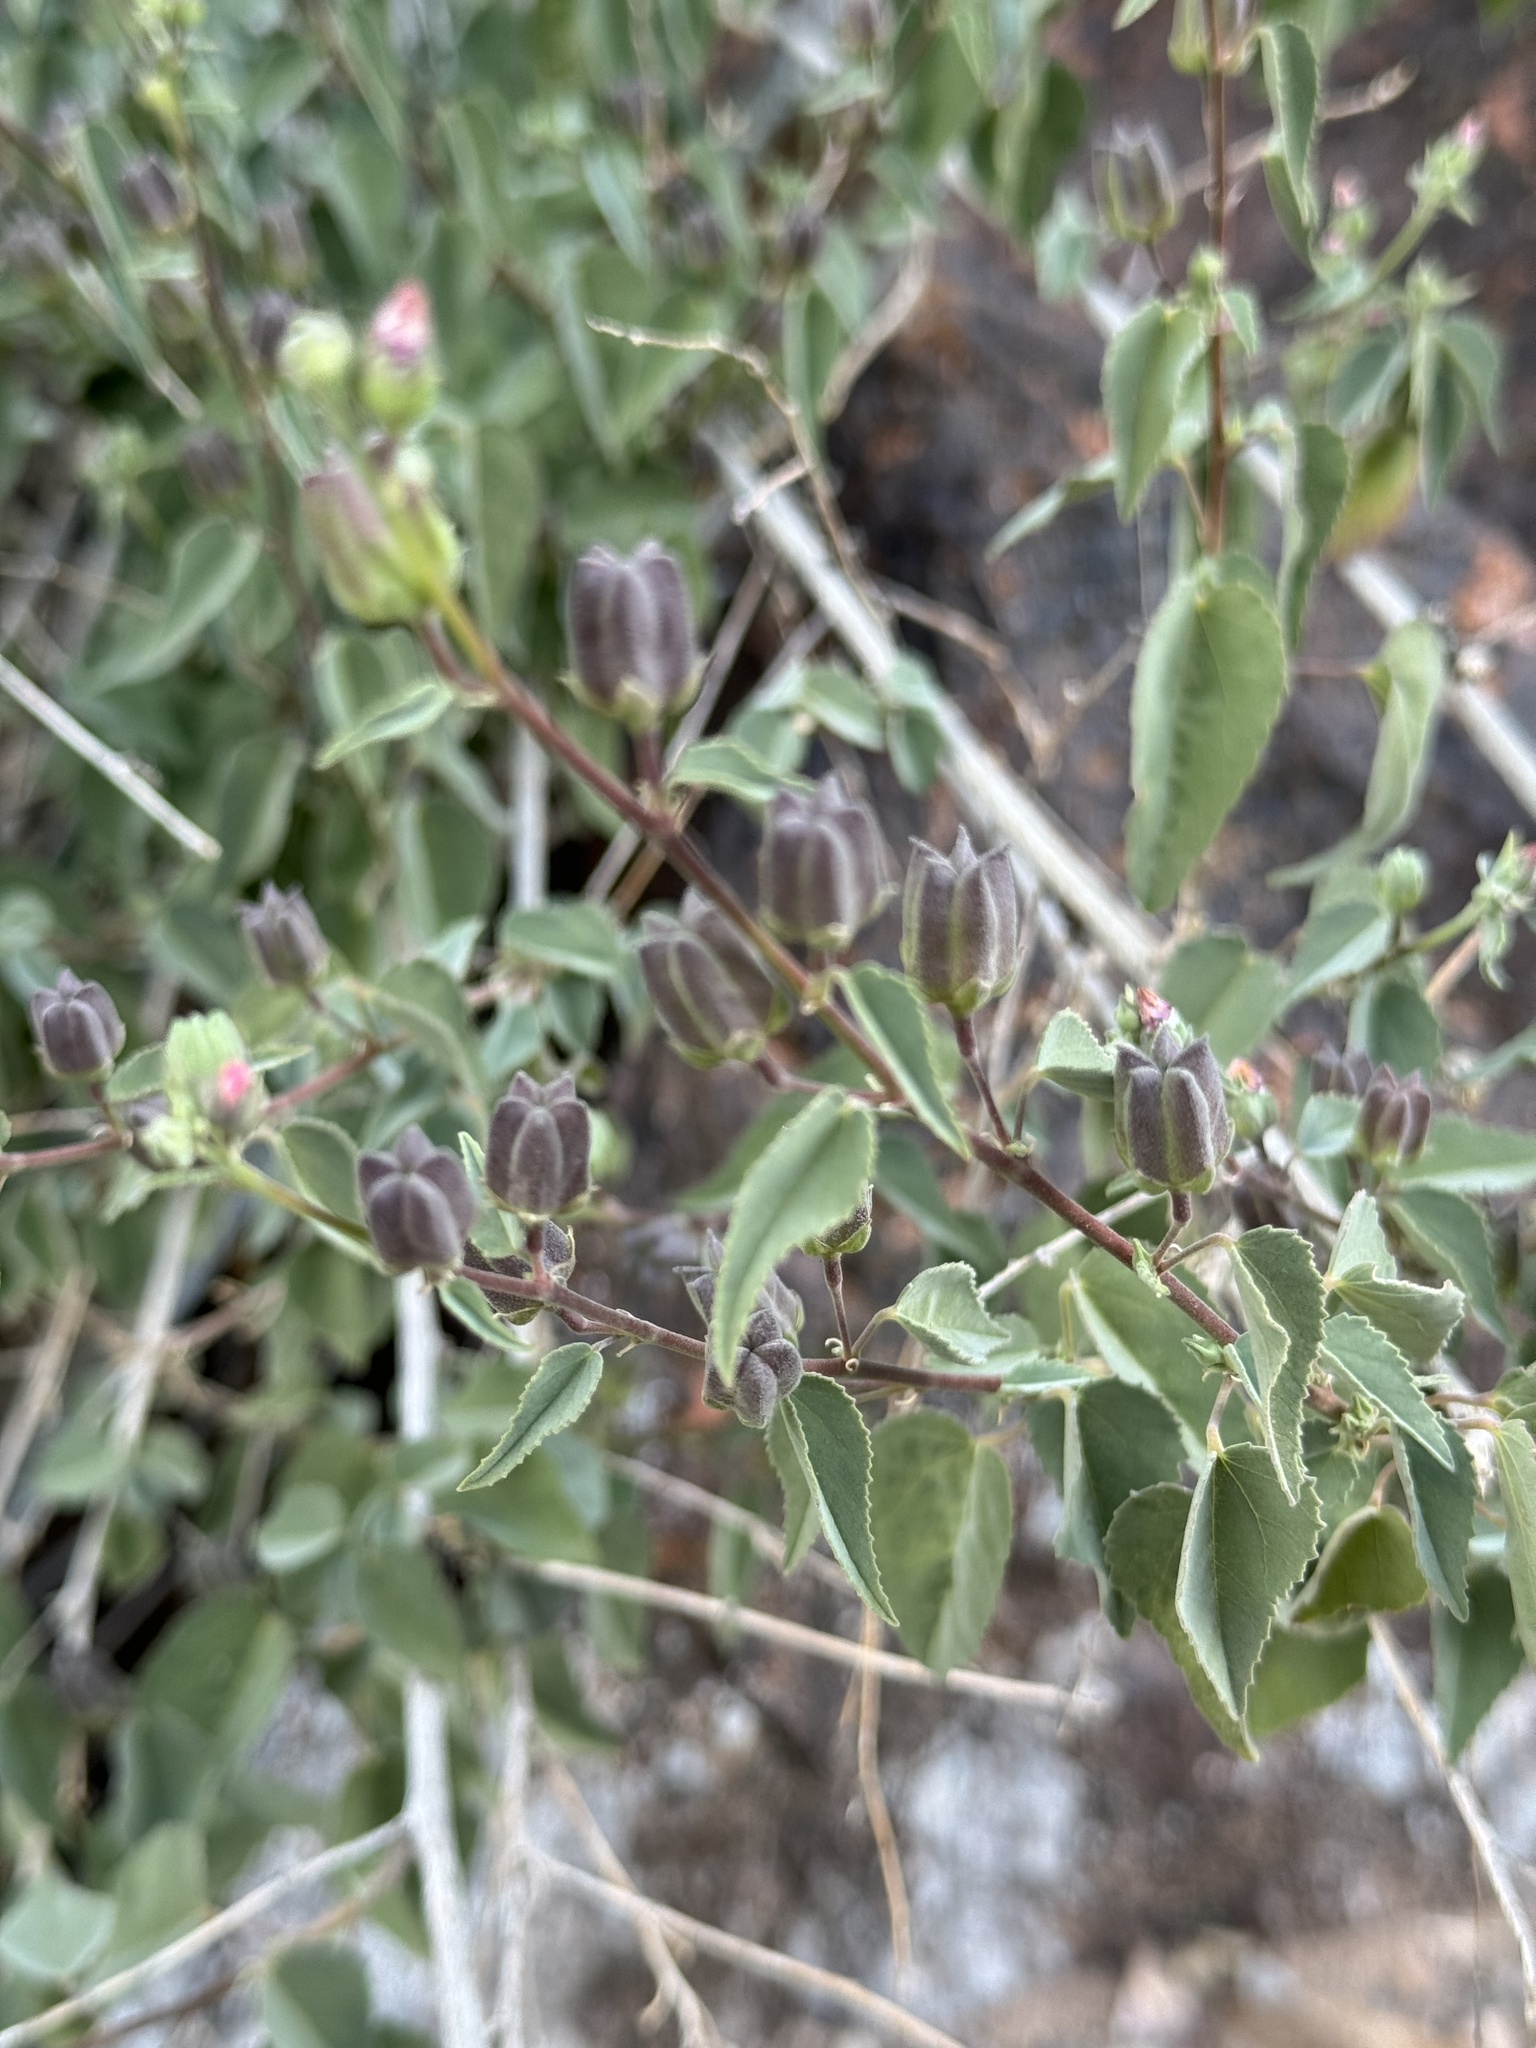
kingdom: Plantae
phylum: Tracheophyta
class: Magnoliopsida
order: Malvales
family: Malvaceae
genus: Abutilon
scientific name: Abutilon incanum
